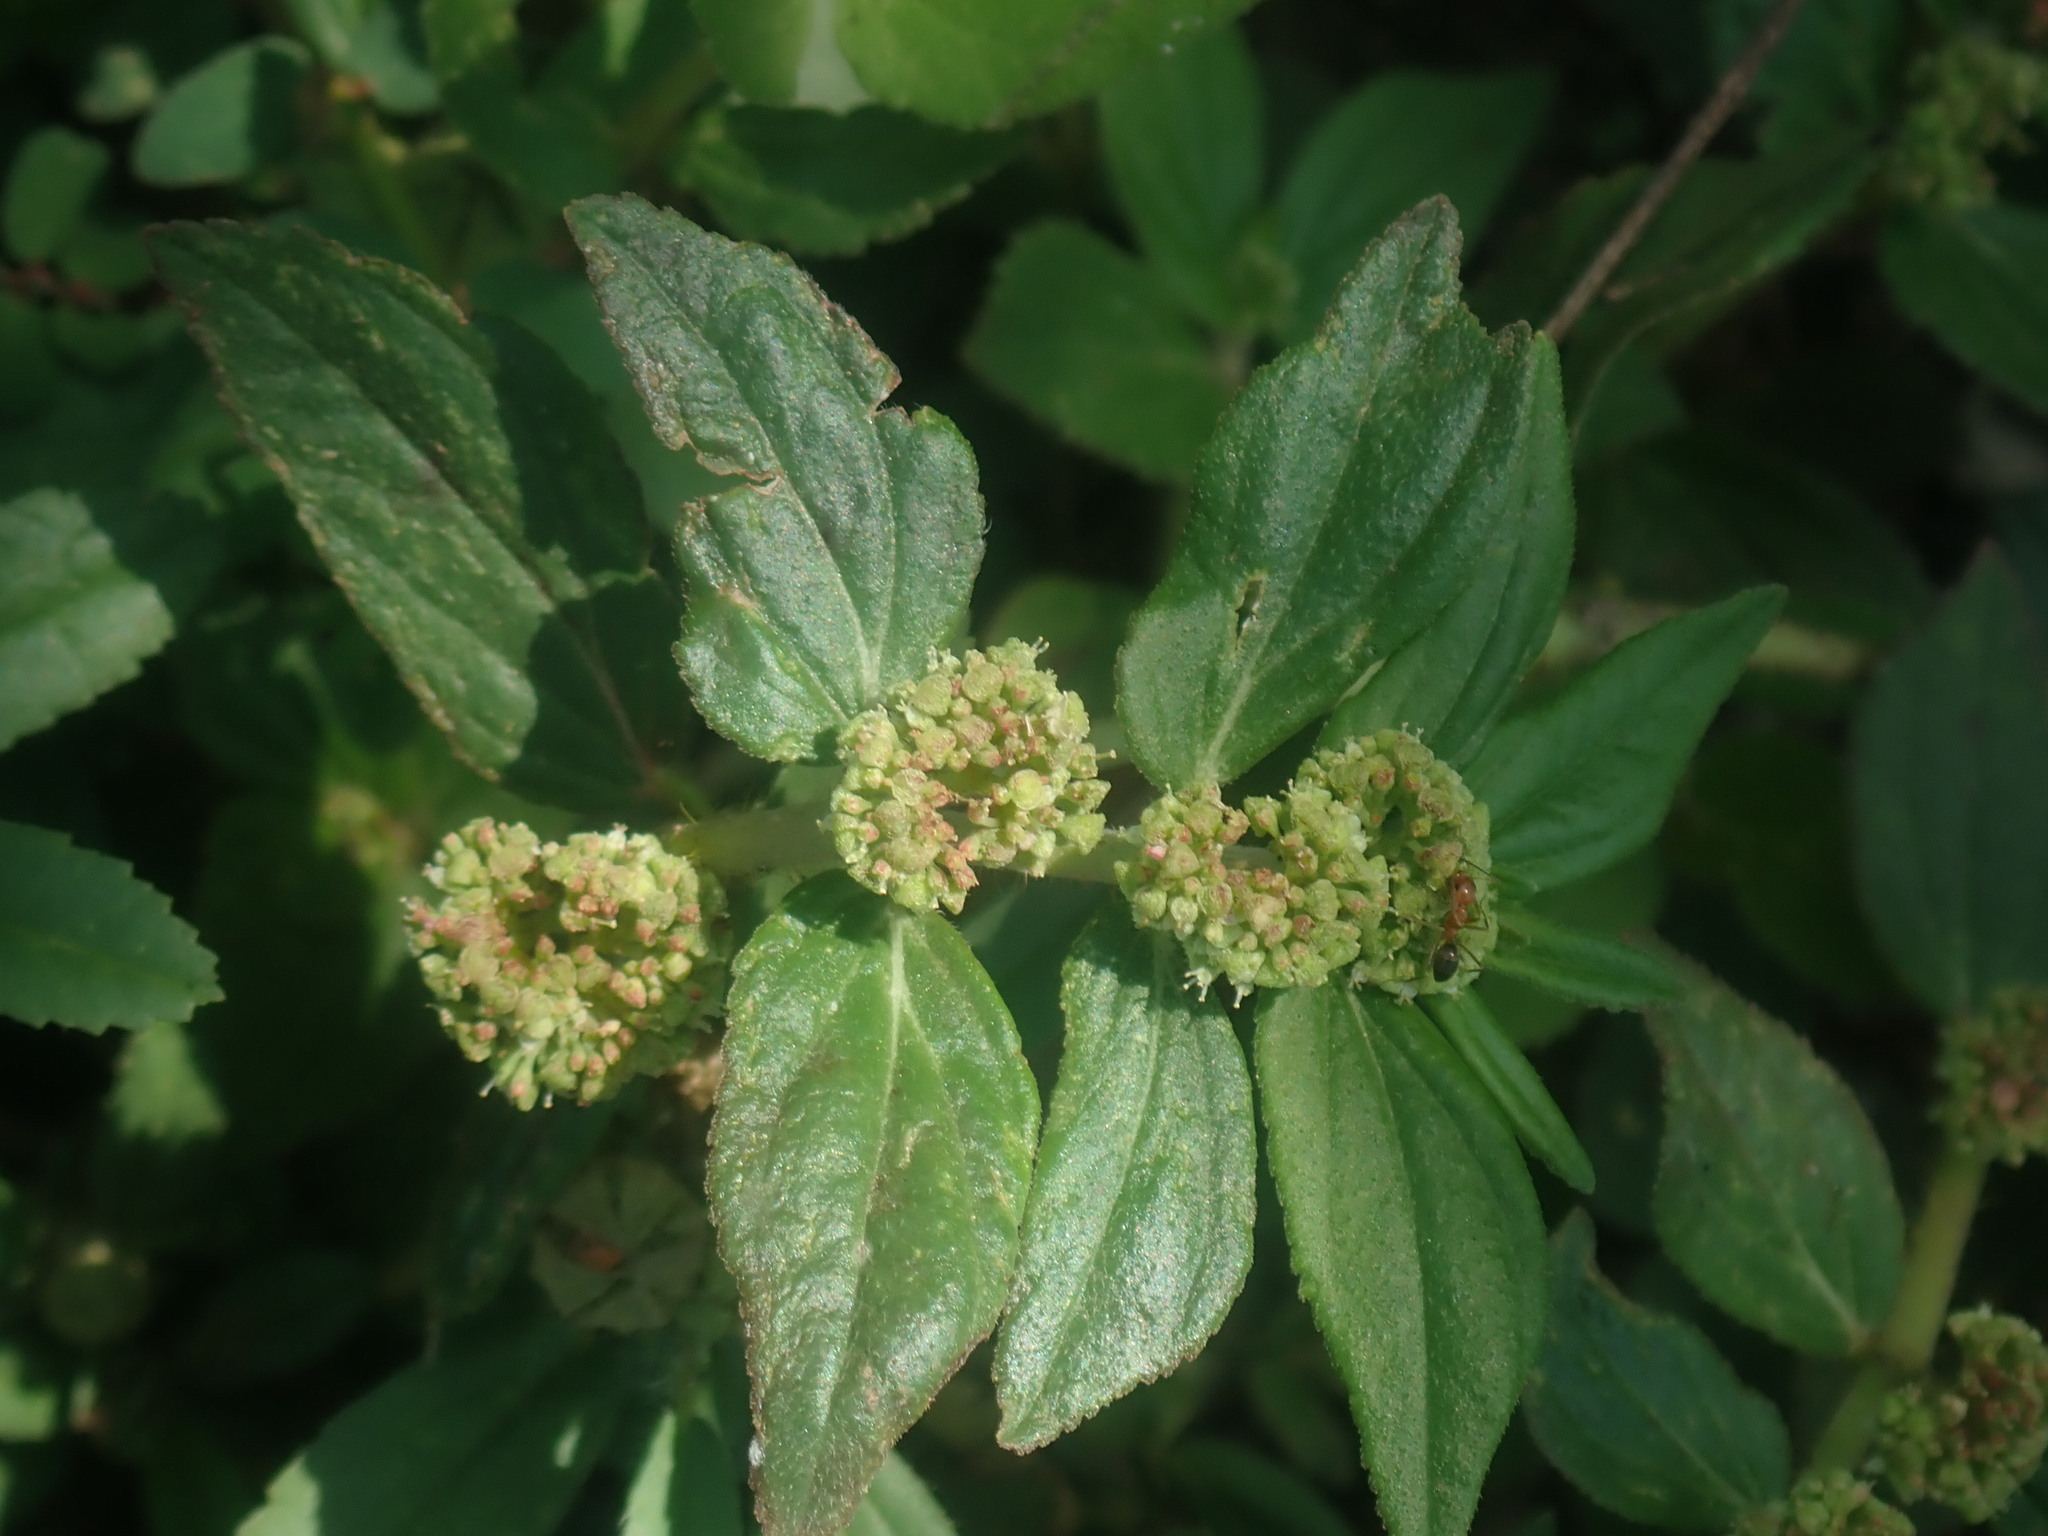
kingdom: Plantae
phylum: Tracheophyta
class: Magnoliopsida
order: Malpighiales
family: Euphorbiaceae
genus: Euphorbia
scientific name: Euphorbia hirta
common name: Pillpod sandmat
